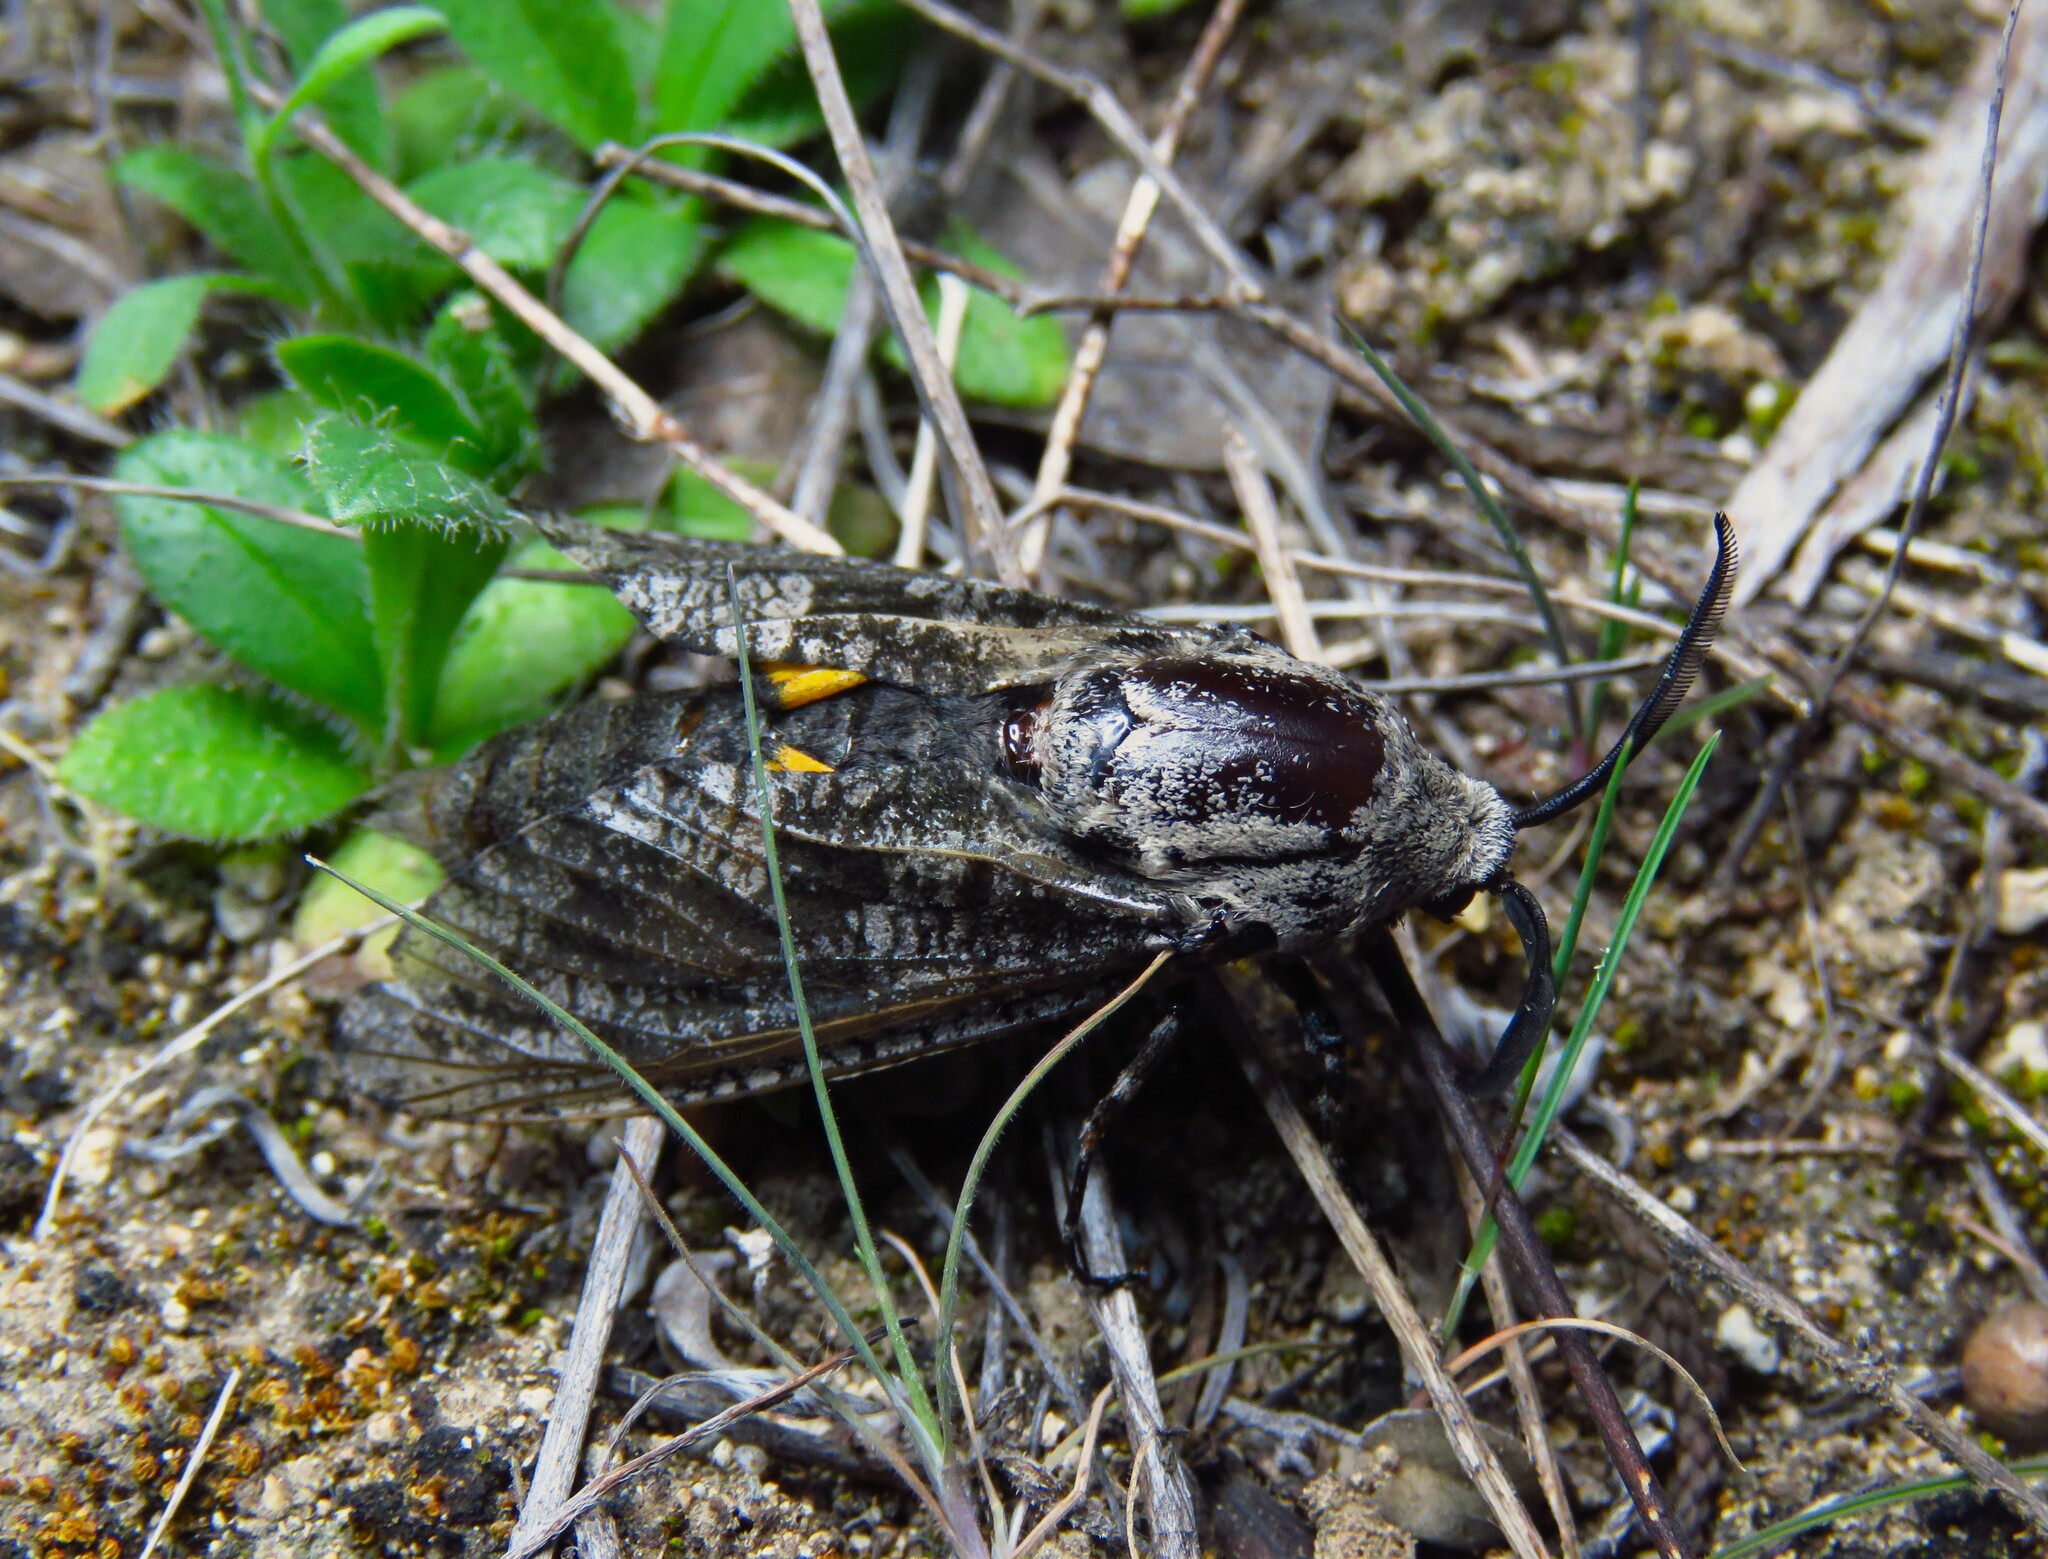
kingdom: Animalia
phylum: Arthropoda
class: Insecta
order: Lepidoptera
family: Cossidae
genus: Prionoxystus
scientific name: Prionoxystus robiniae
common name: Carpenterworm
